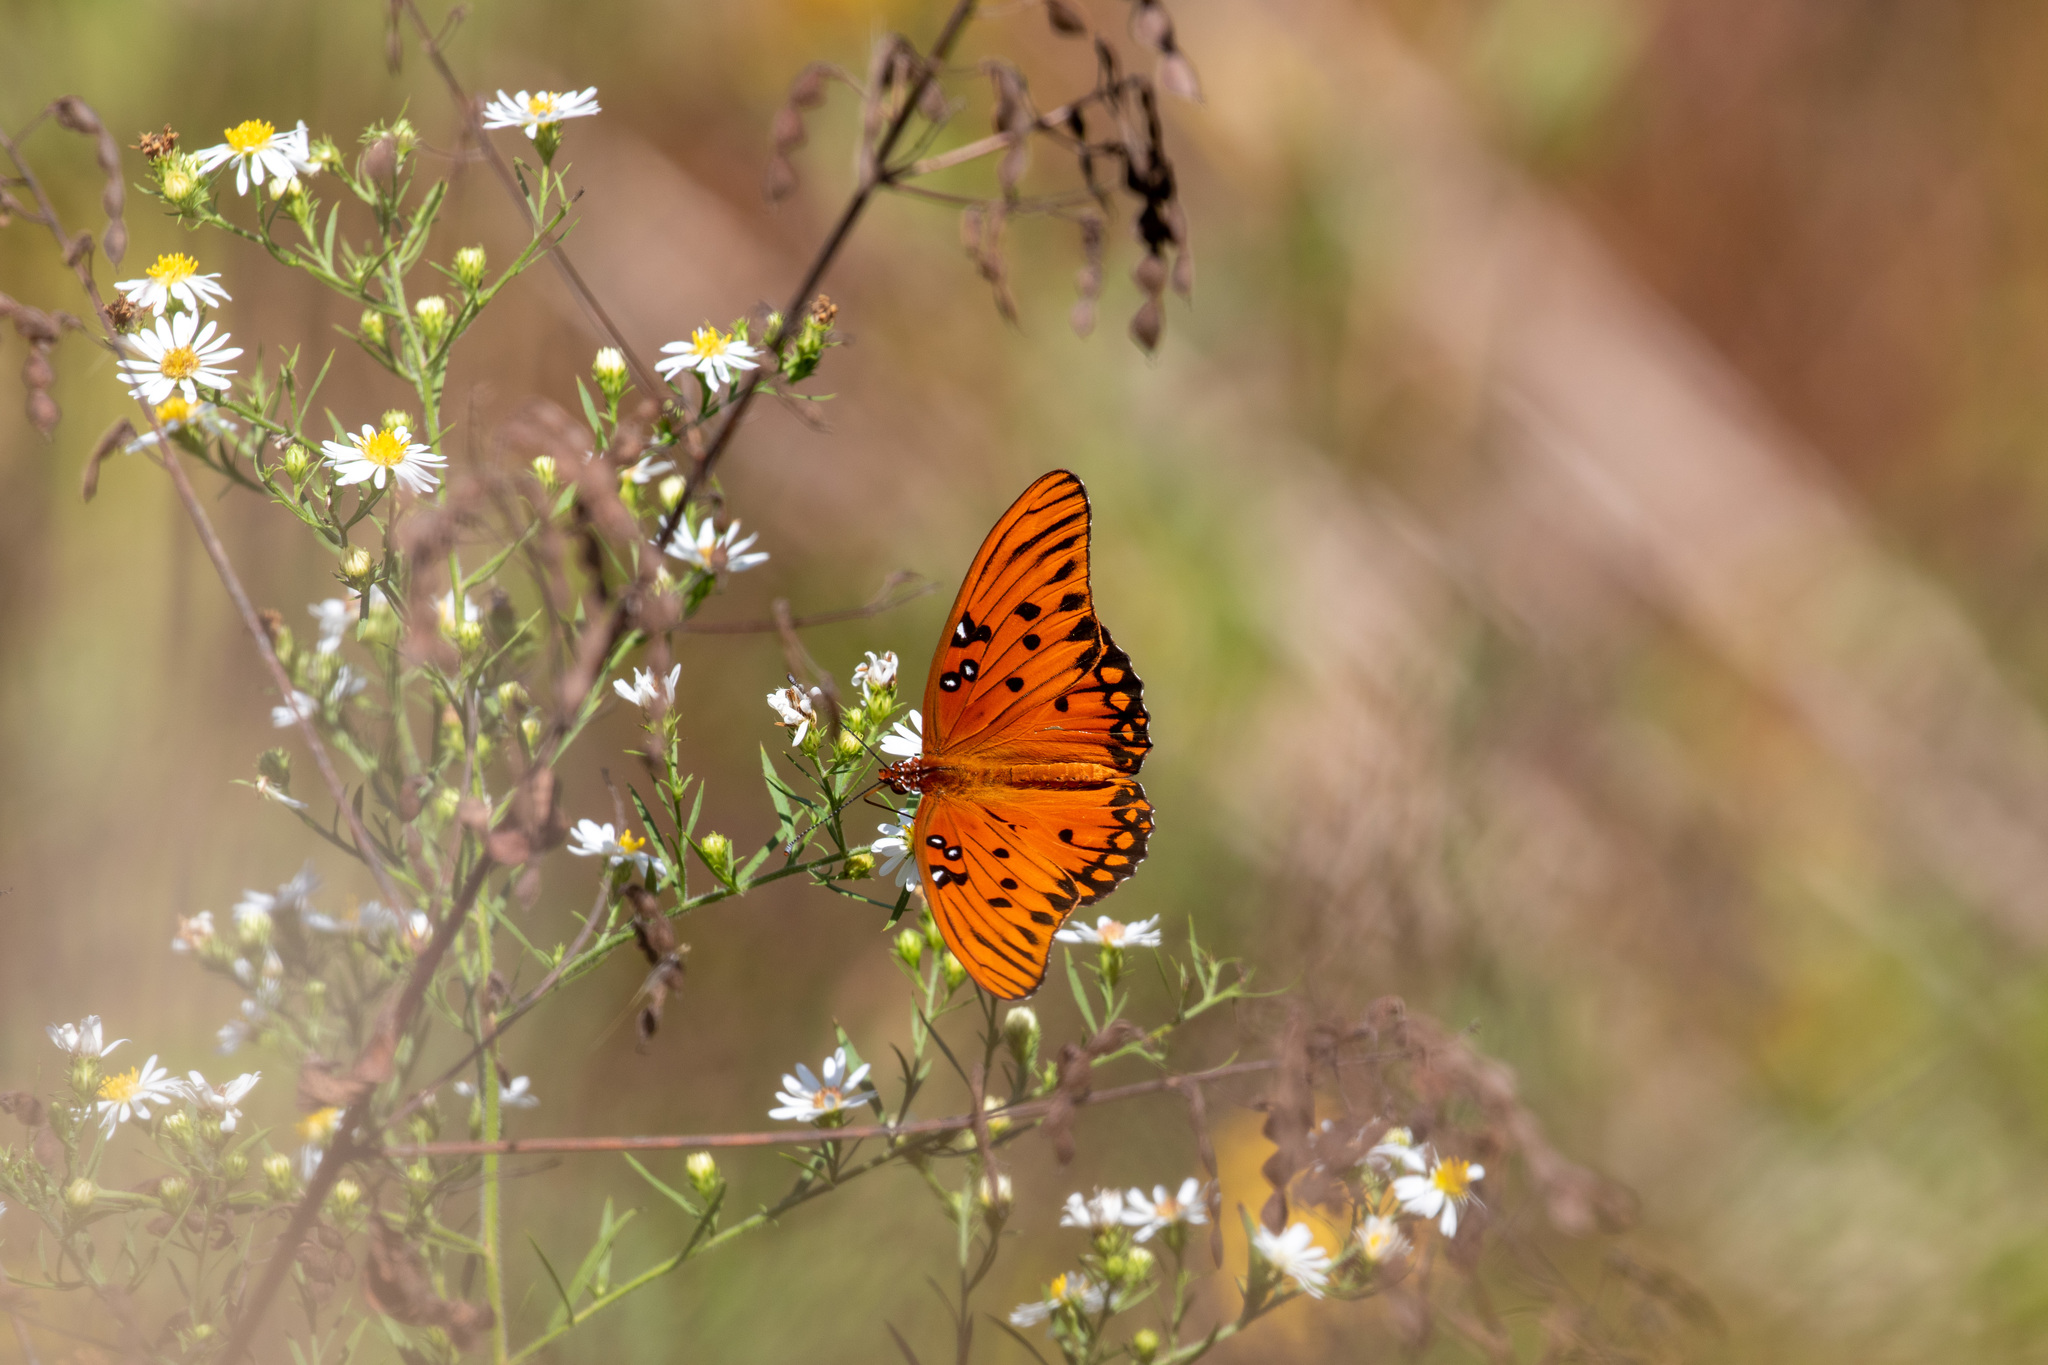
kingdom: Animalia
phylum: Arthropoda
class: Insecta
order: Lepidoptera
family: Nymphalidae
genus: Dione
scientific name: Dione vanillae
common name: Gulf fritillary
